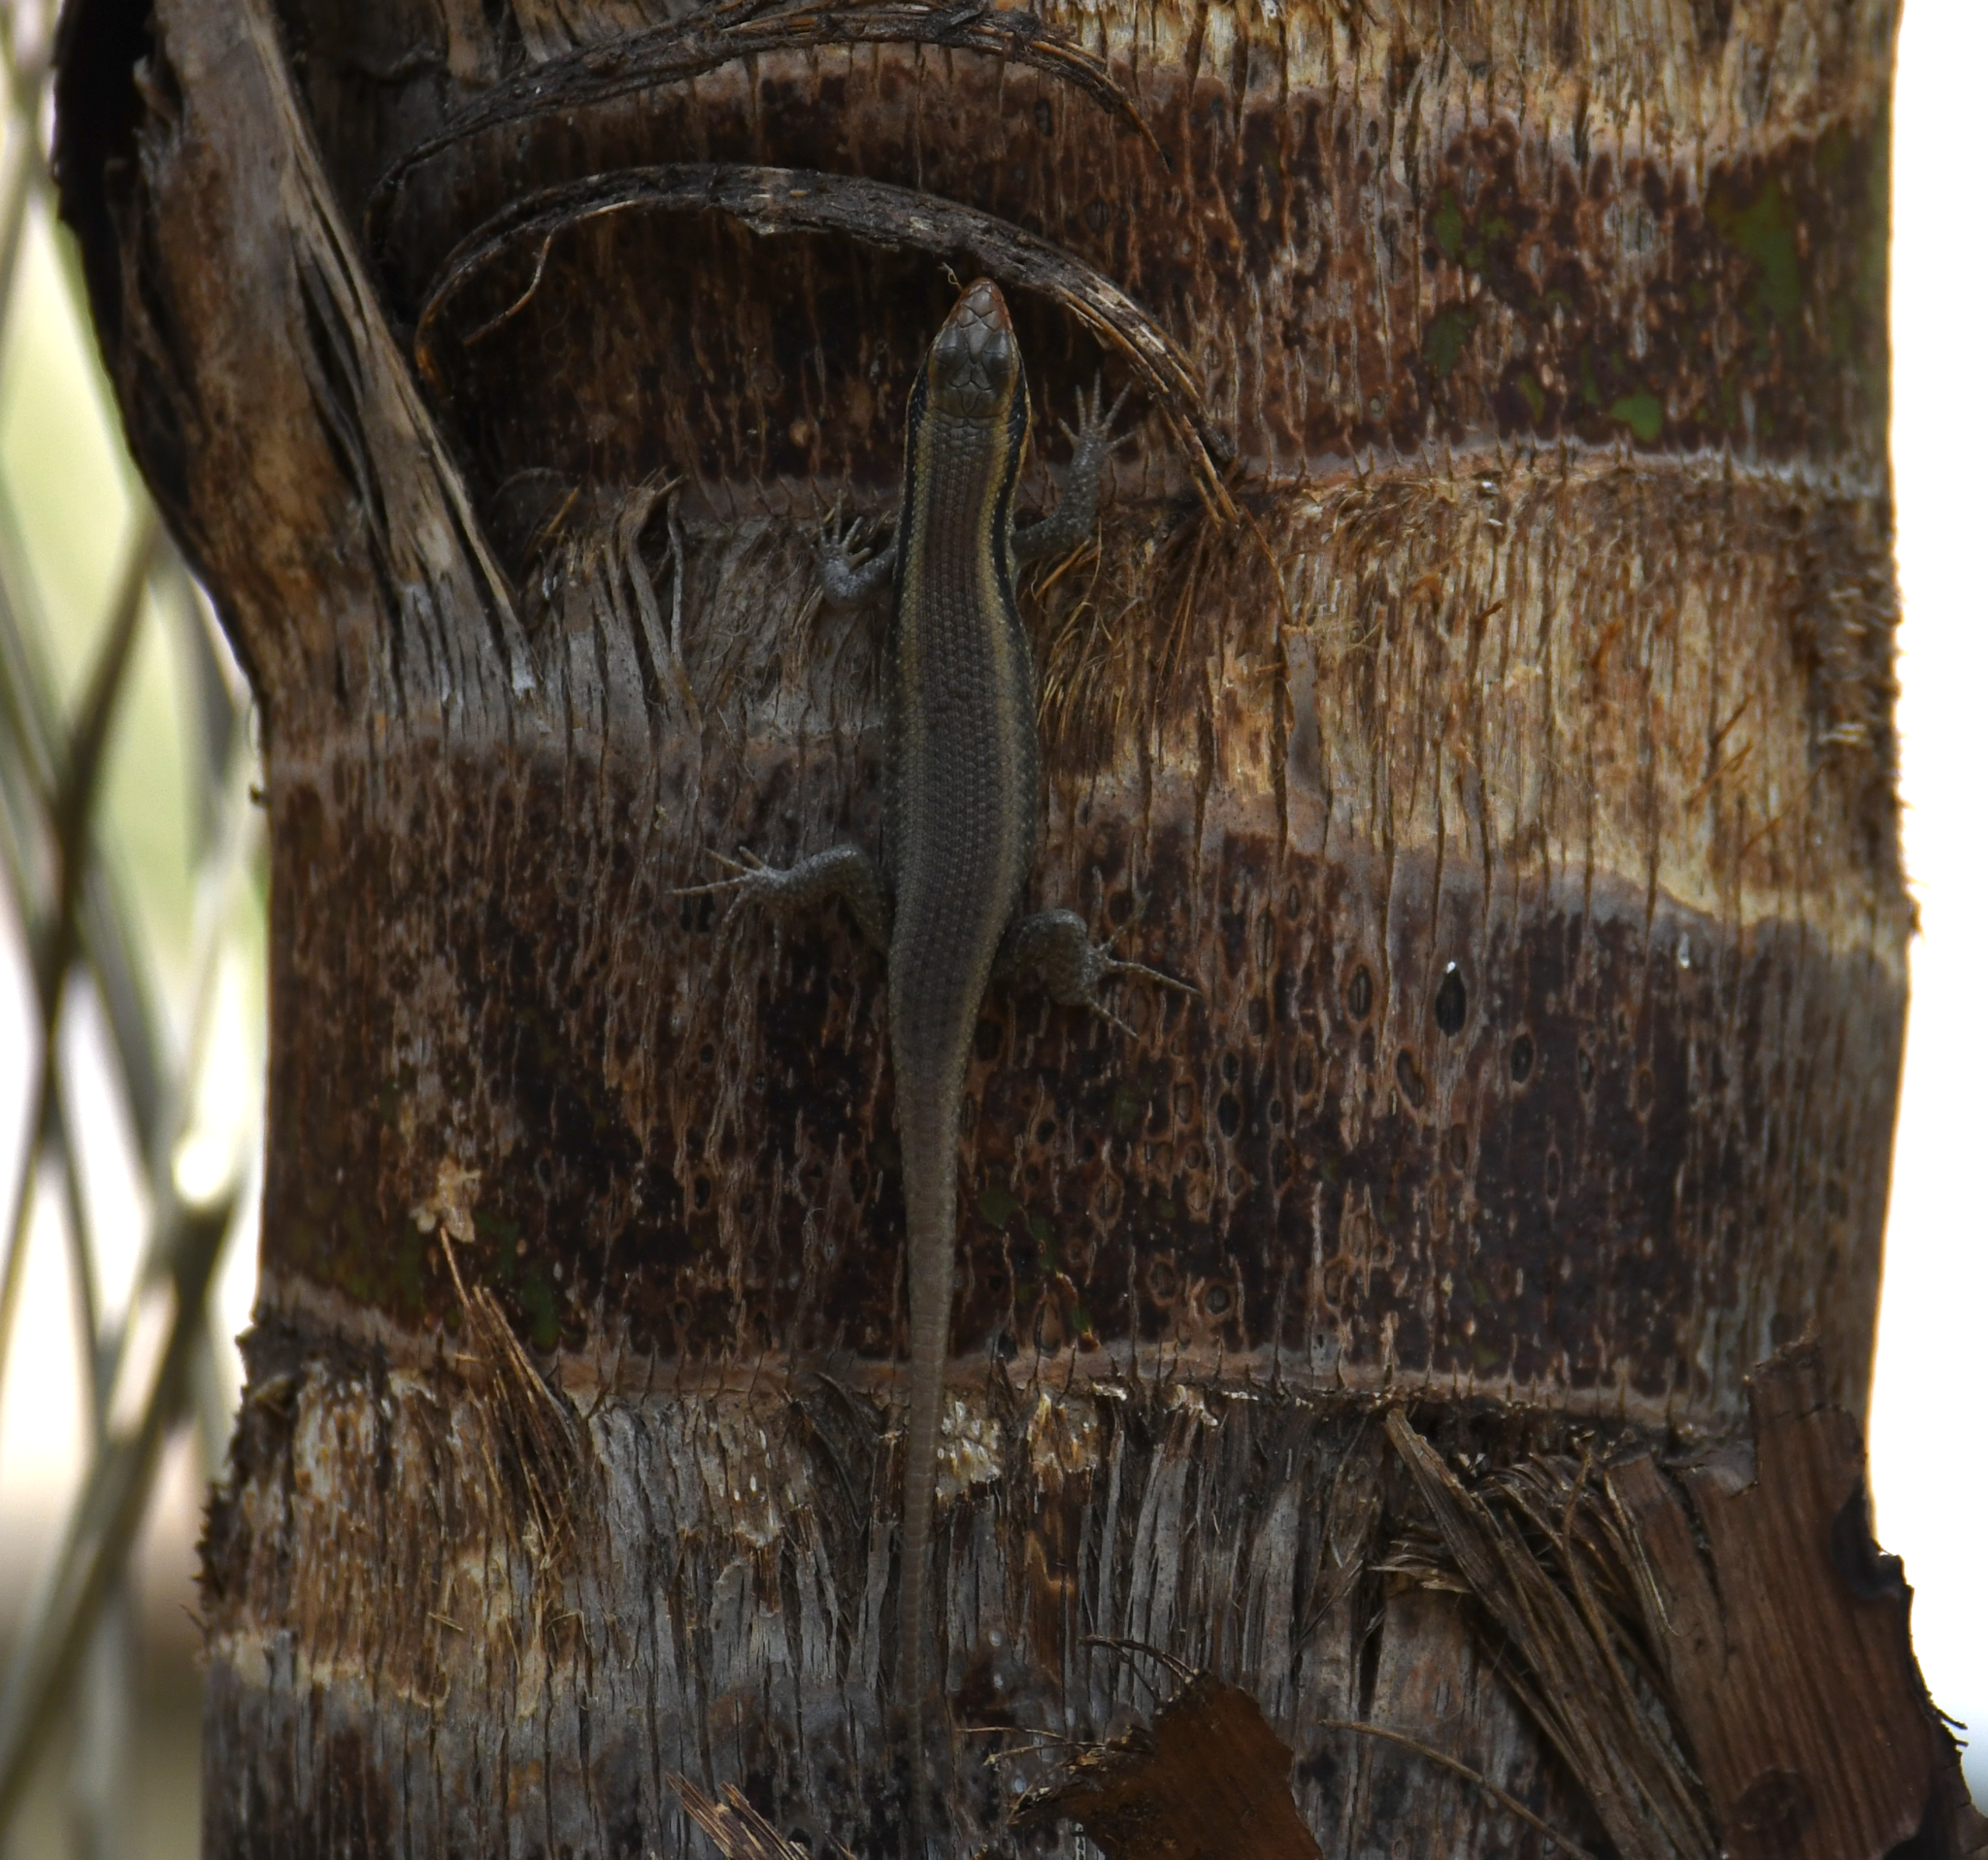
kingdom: Animalia
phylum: Chordata
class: Squamata
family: Scincidae
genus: Trachylepis
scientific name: Trachylepis wahlbergii
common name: Wahlberg’s striped skink
